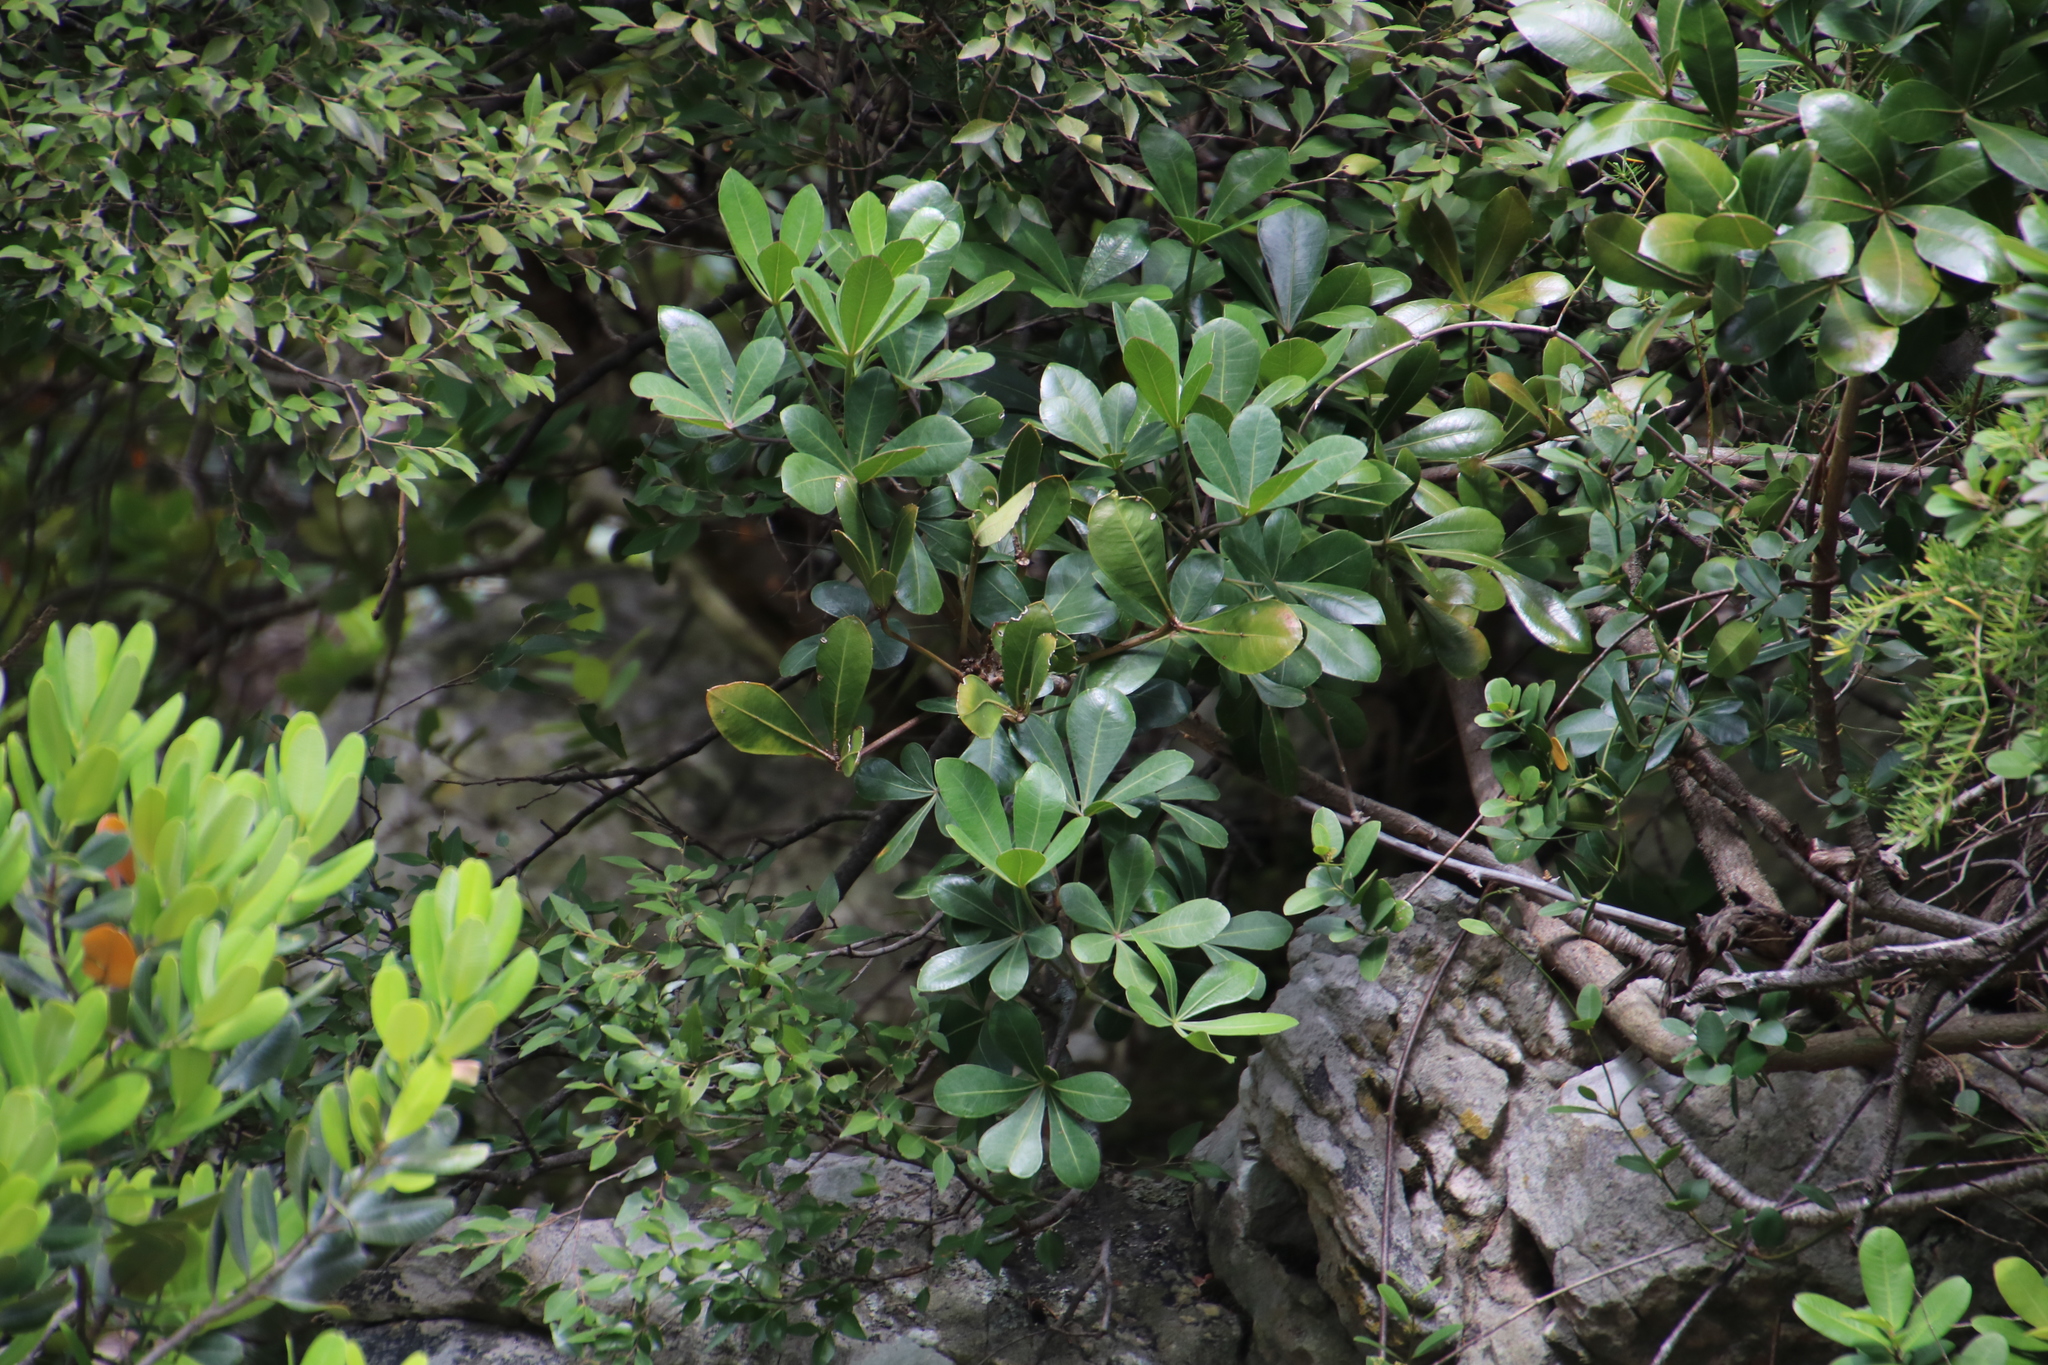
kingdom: Plantae
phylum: Tracheophyta
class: Magnoliopsida
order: Apiales
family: Araliaceae
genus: Cussonia
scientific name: Cussonia thyrsiflora
